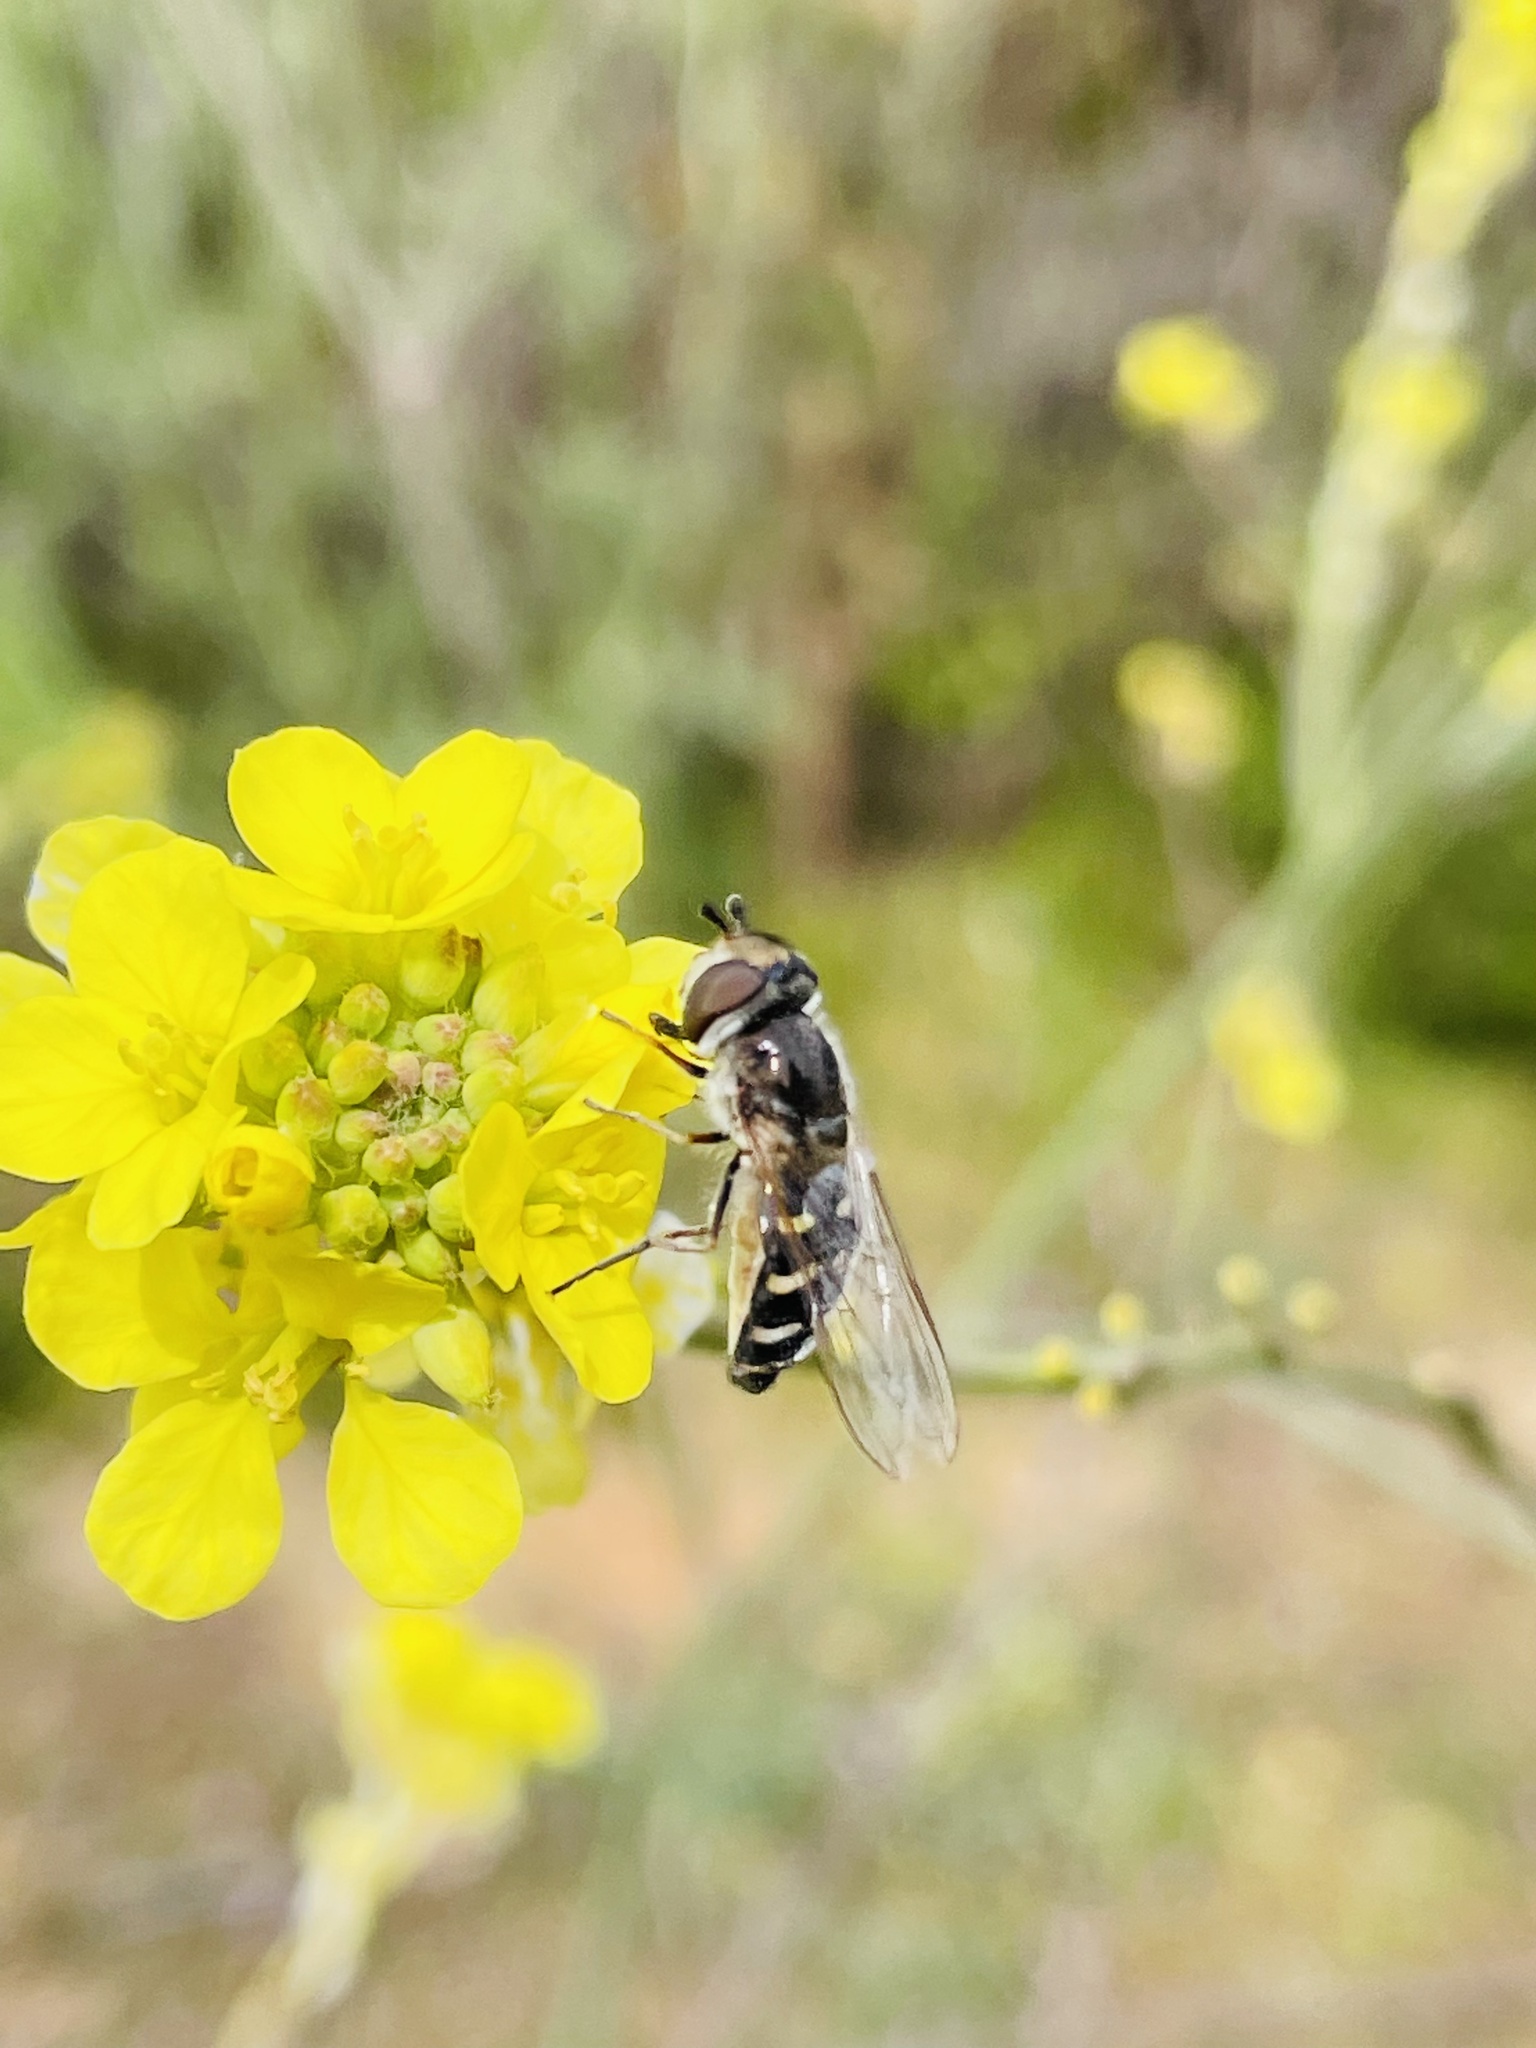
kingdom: Animalia
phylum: Arthropoda
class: Insecta
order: Diptera
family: Syrphidae
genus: Austroscaeva
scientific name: Austroscaeva melanostoma
